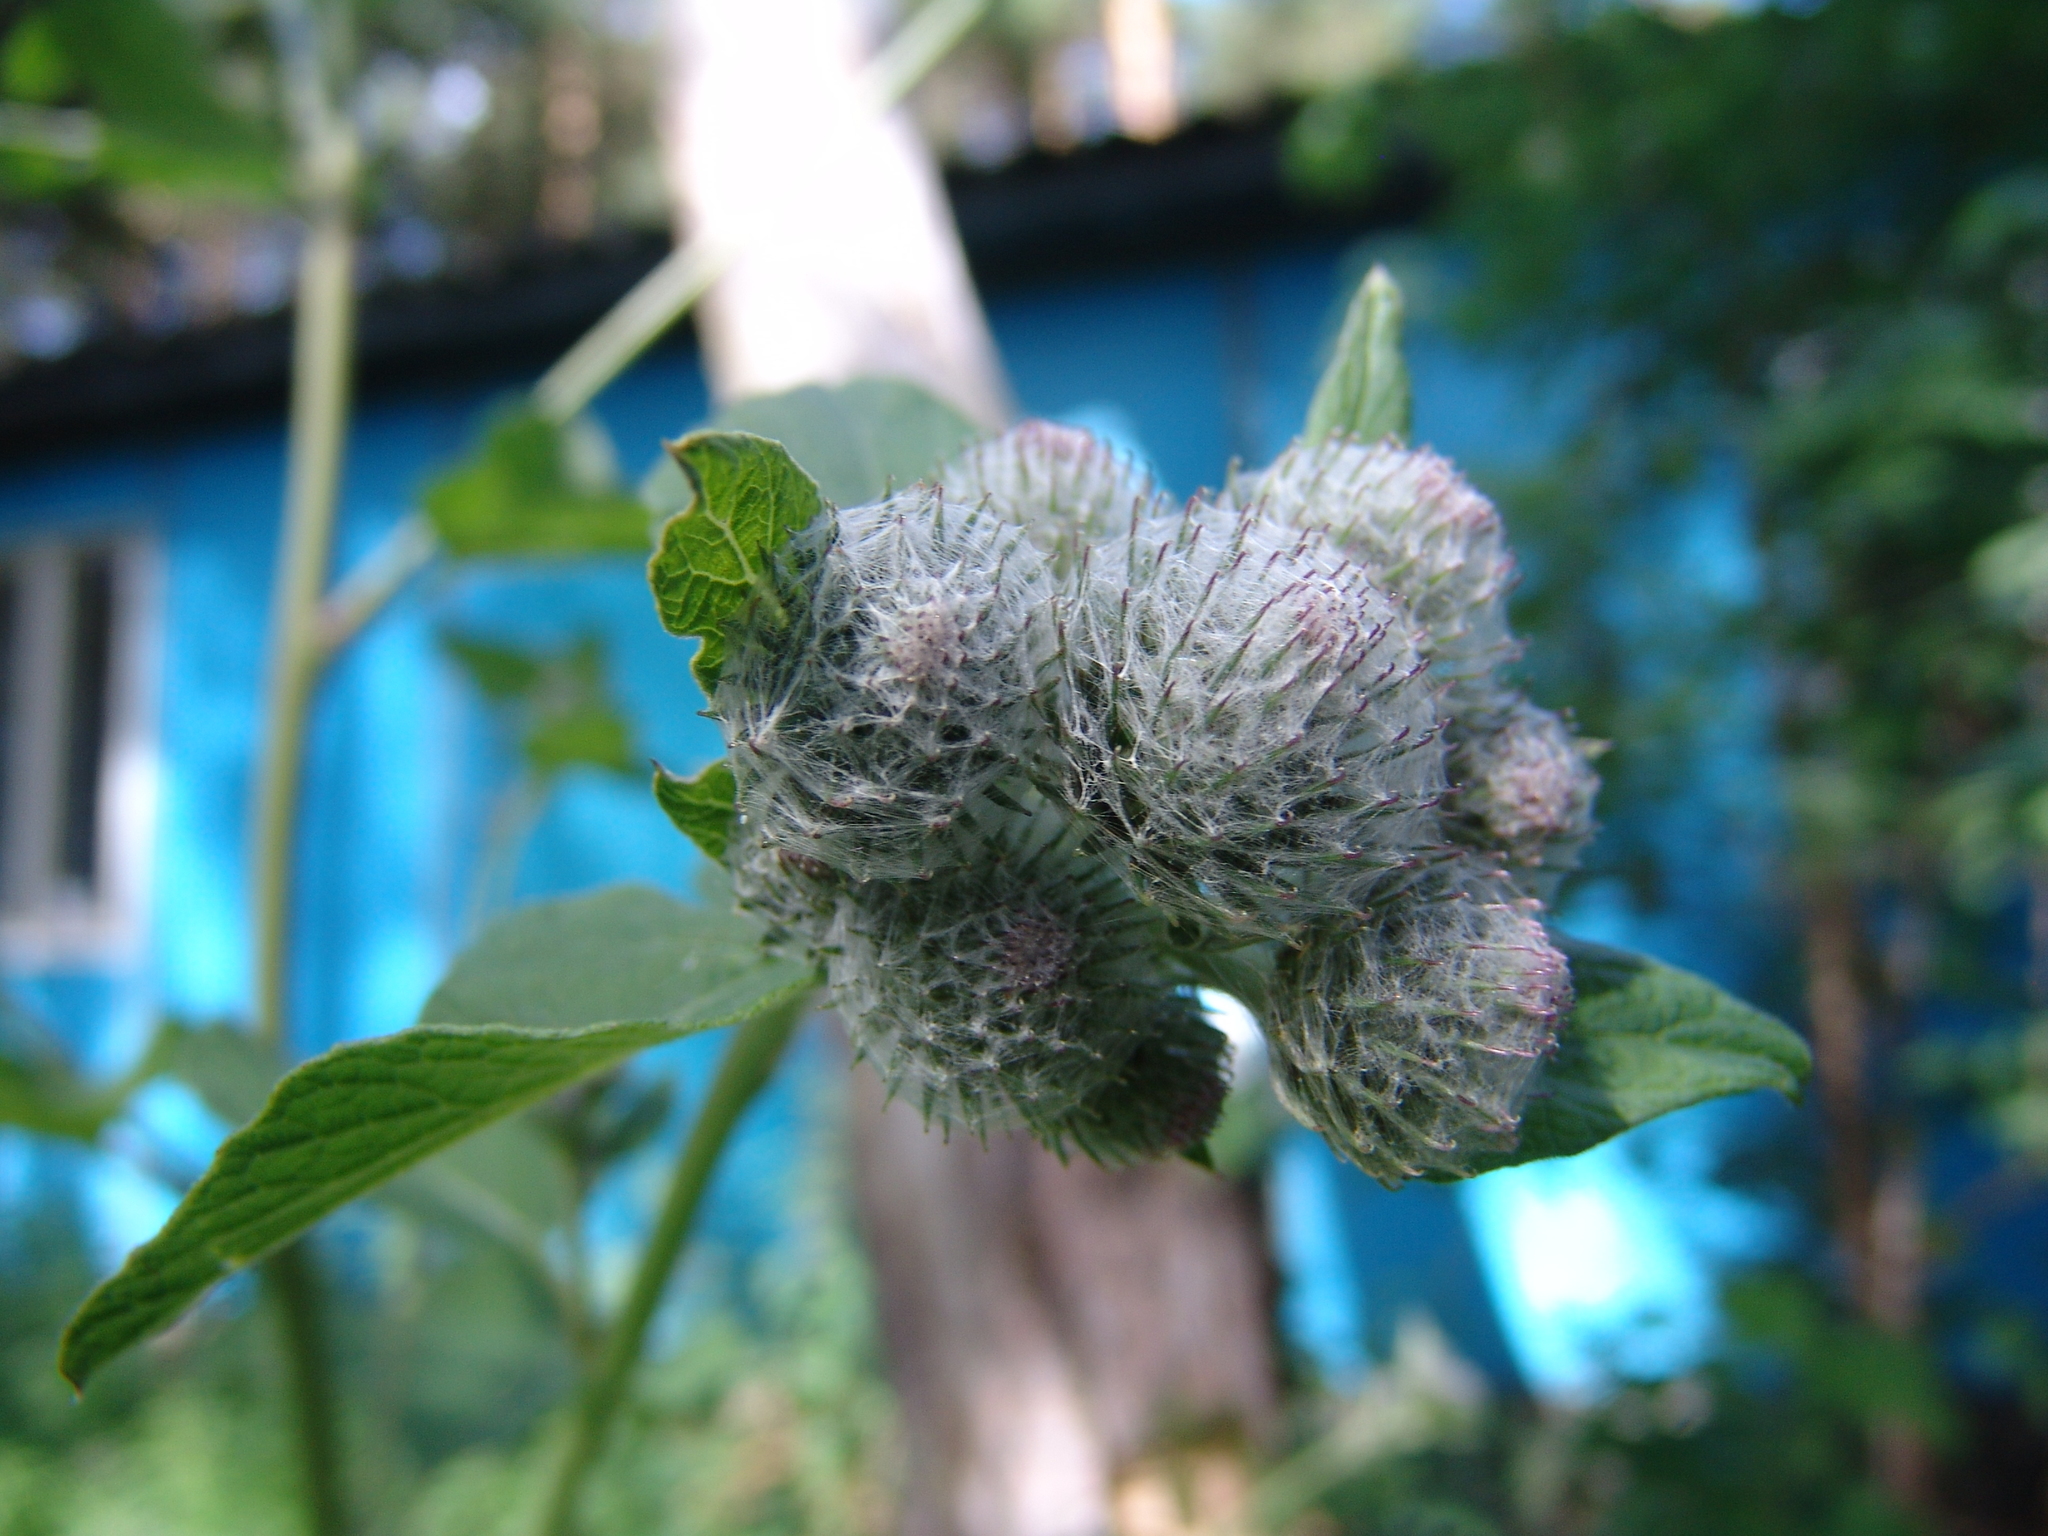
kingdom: Plantae
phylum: Tracheophyta
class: Magnoliopsida
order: Asterales
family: Asteraceae
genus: Arctium
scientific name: Arctium tomentosum
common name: Woolly burdock
